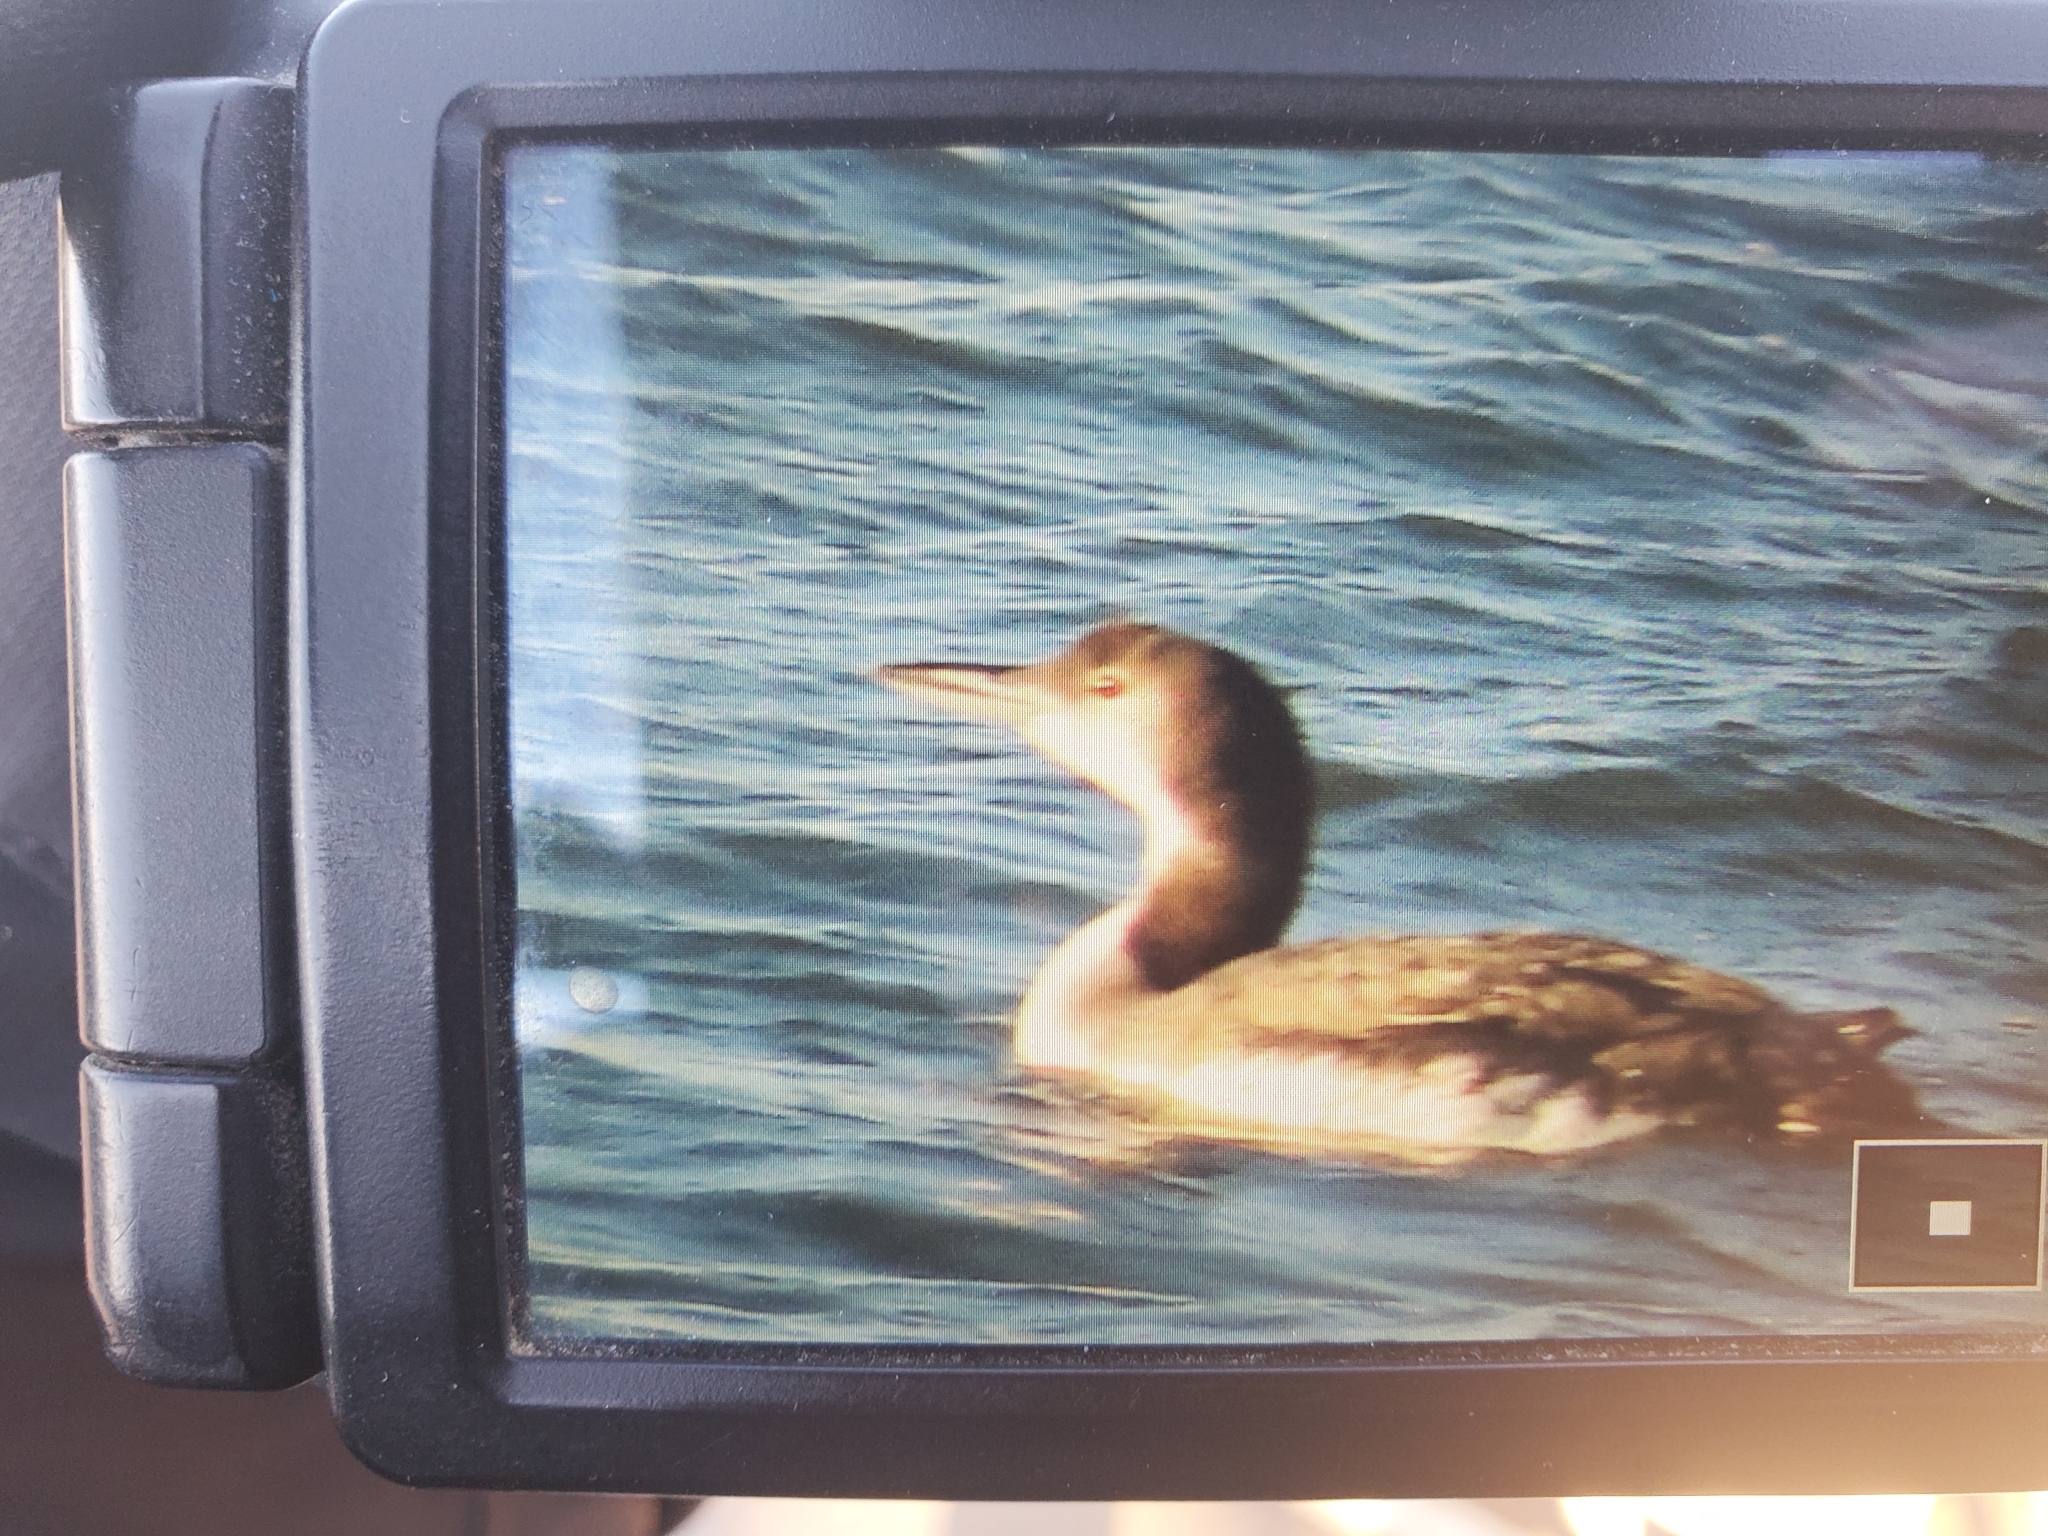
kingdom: Animalia
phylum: Chordata
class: Aves
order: Gaviiformes
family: Gaviidae
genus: Gavia
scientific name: Gavia immer
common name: Common loon
